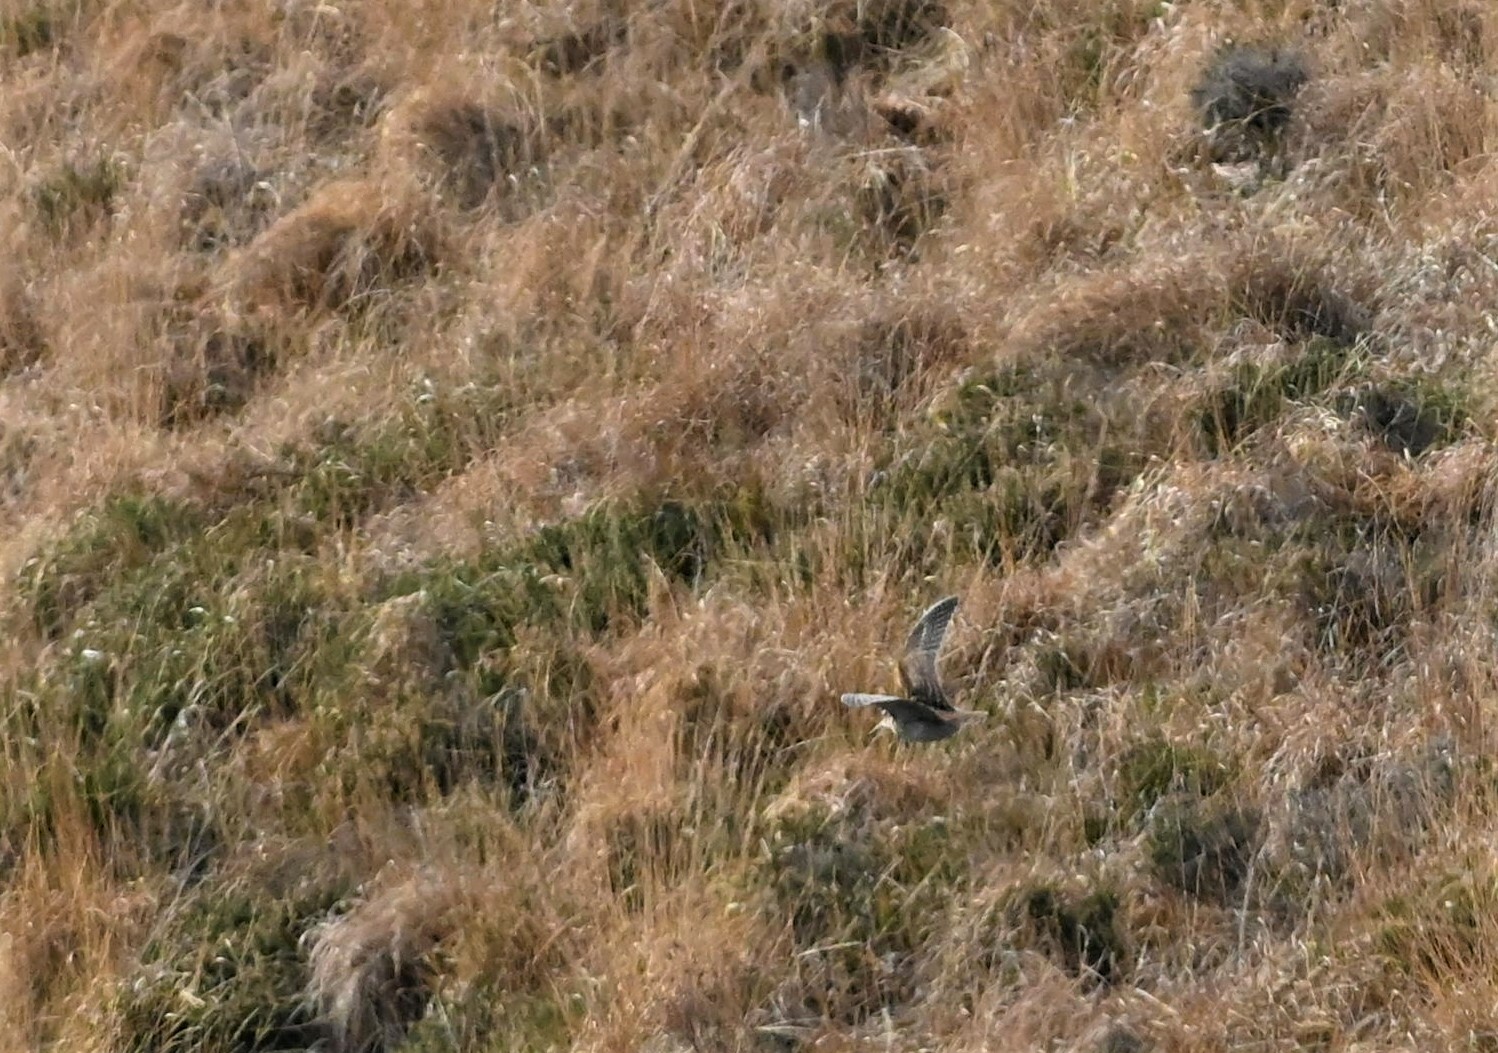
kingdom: Animalia
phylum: Chordata
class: Aves
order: Charadriiformes
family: Scolopacidae
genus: Scolopax
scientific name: Scolopax rusticola
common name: Eurasian woodcock
